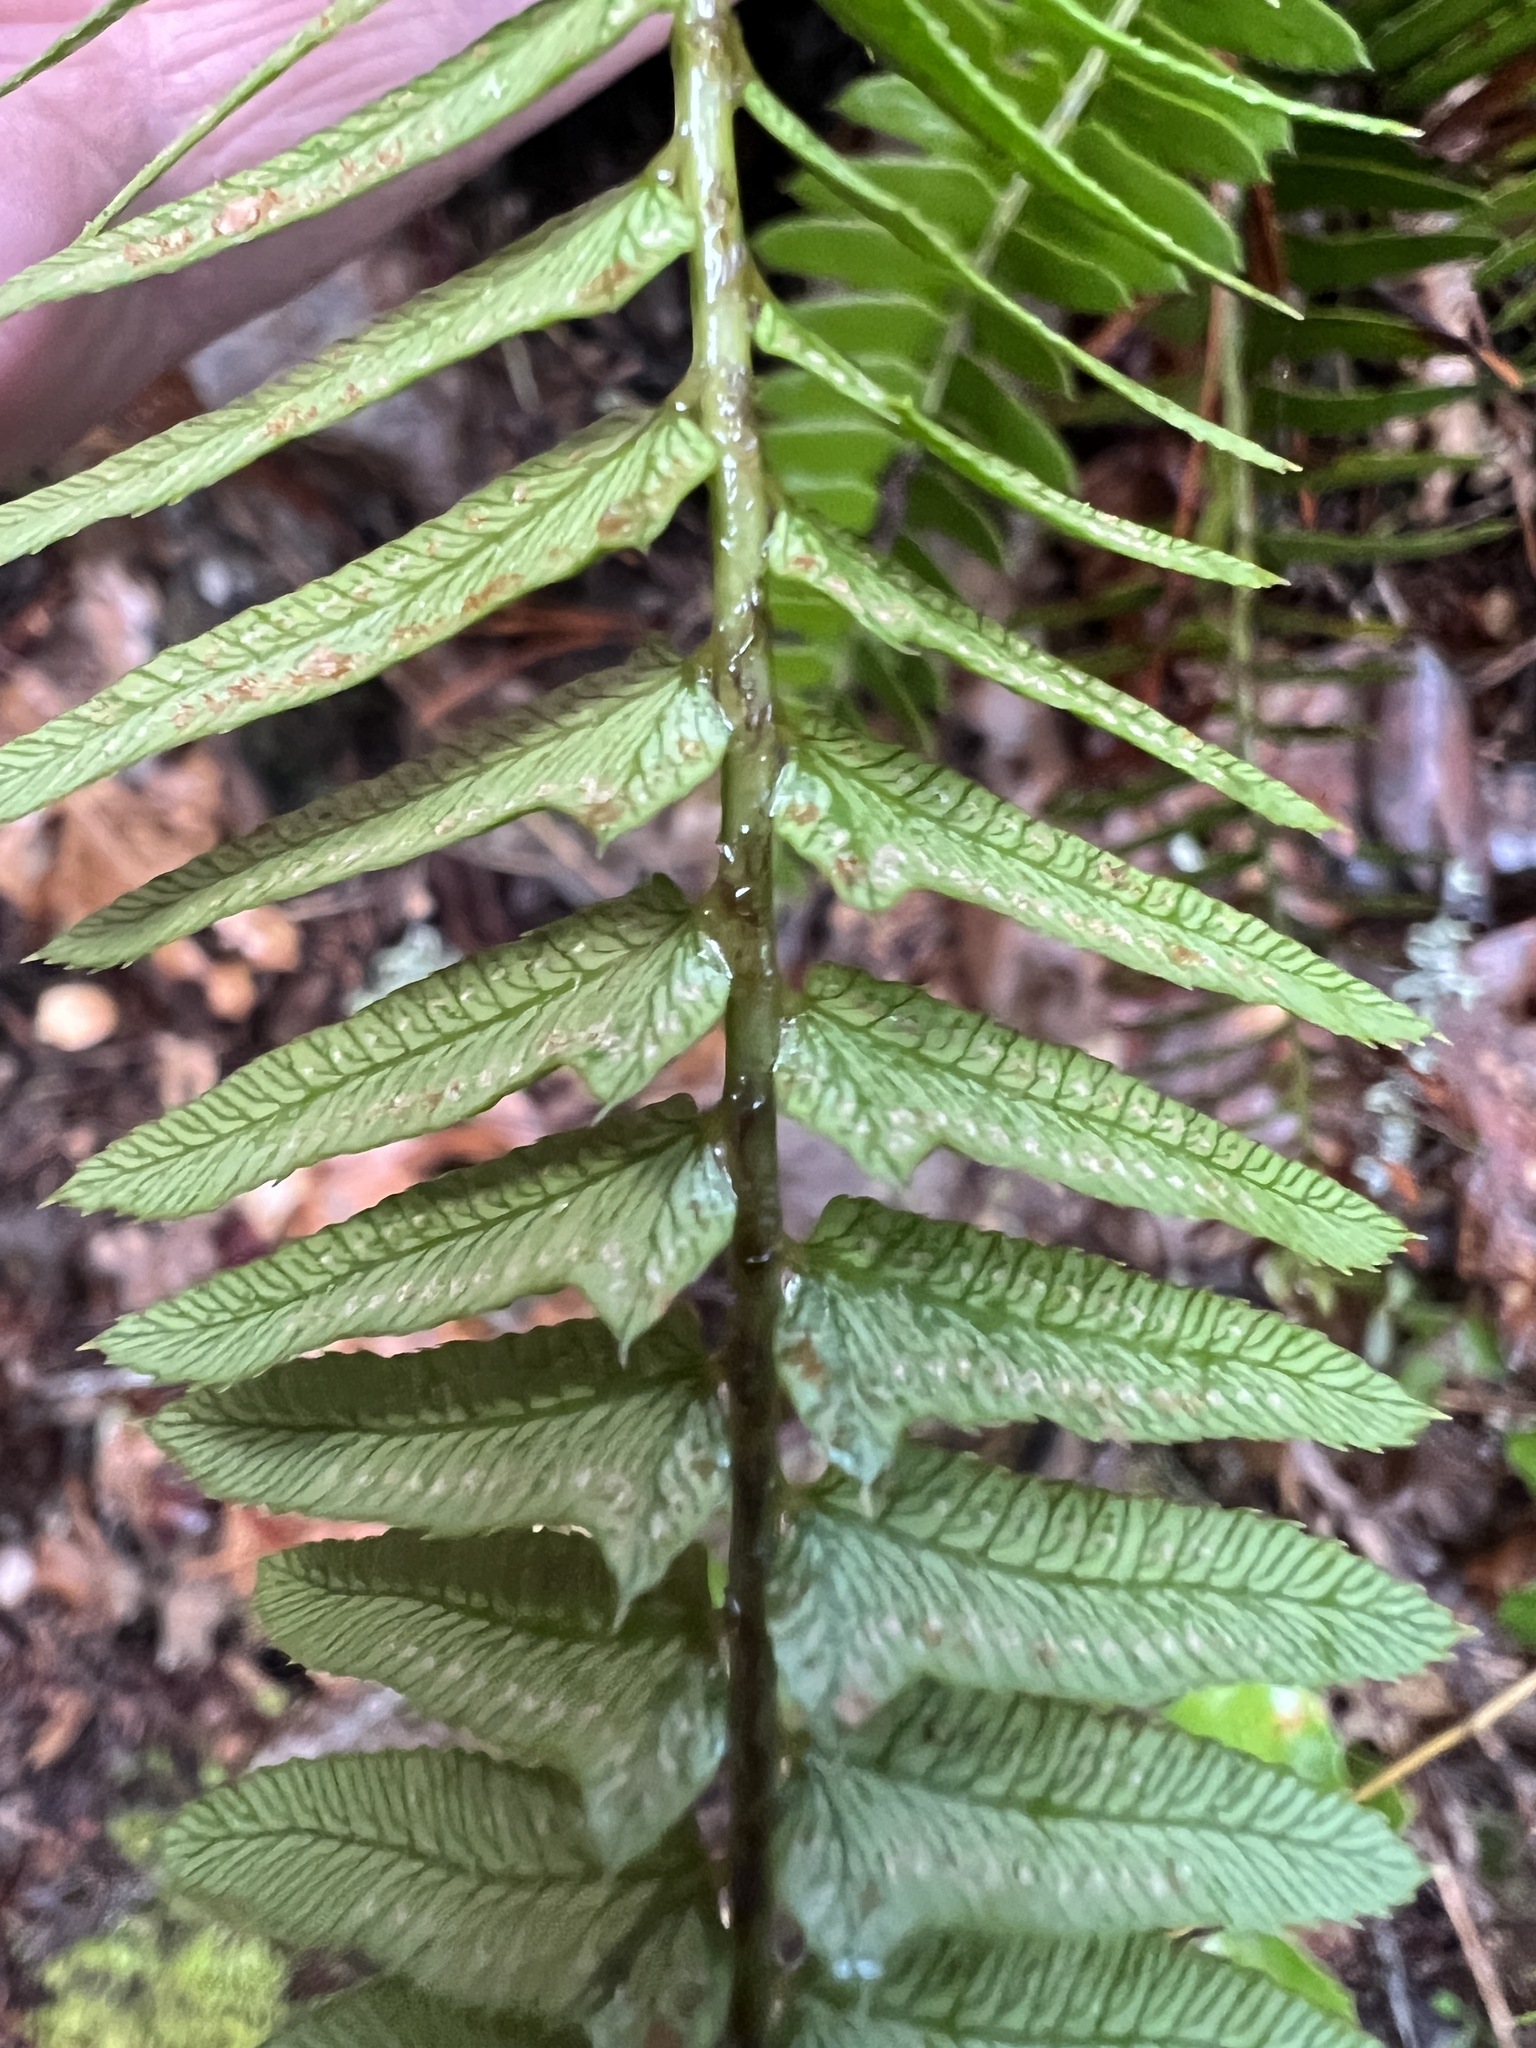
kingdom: Plantae
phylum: Tracheophyta
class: Polypodiopsida
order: Polypodiales
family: Dryopteridaceae
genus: Polystichum
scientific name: Polystichum imbricans
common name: Dwarf western sword fern
